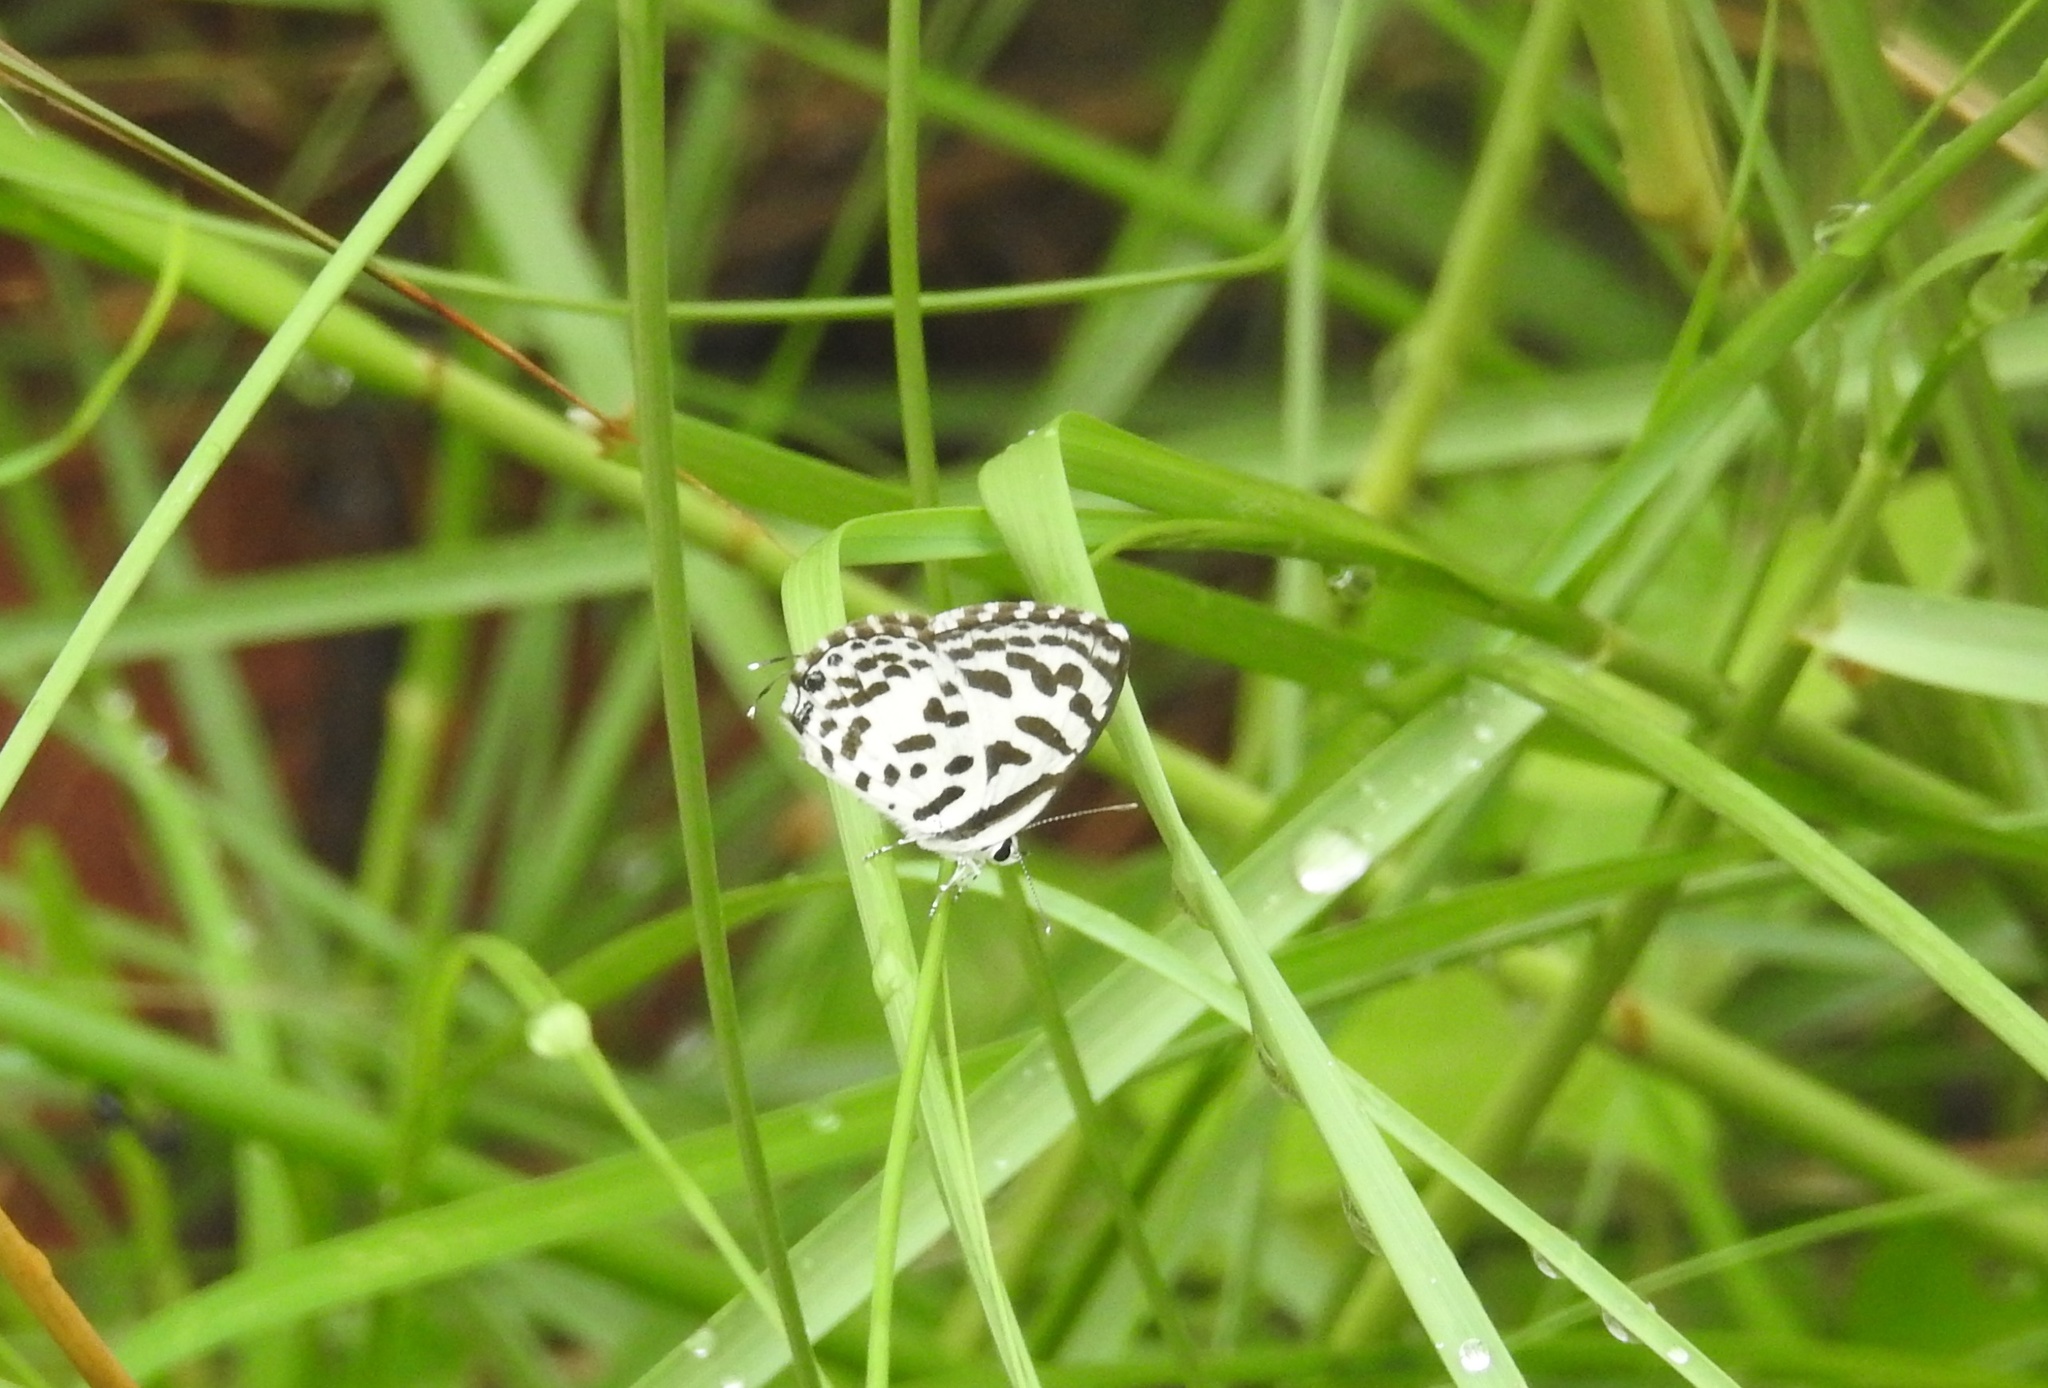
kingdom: Animalia
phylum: Arthropoda
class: Insecta
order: Lepidoptera
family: Lycaenidae
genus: Castalius
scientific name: Castalius rosimon
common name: Common pierrot
